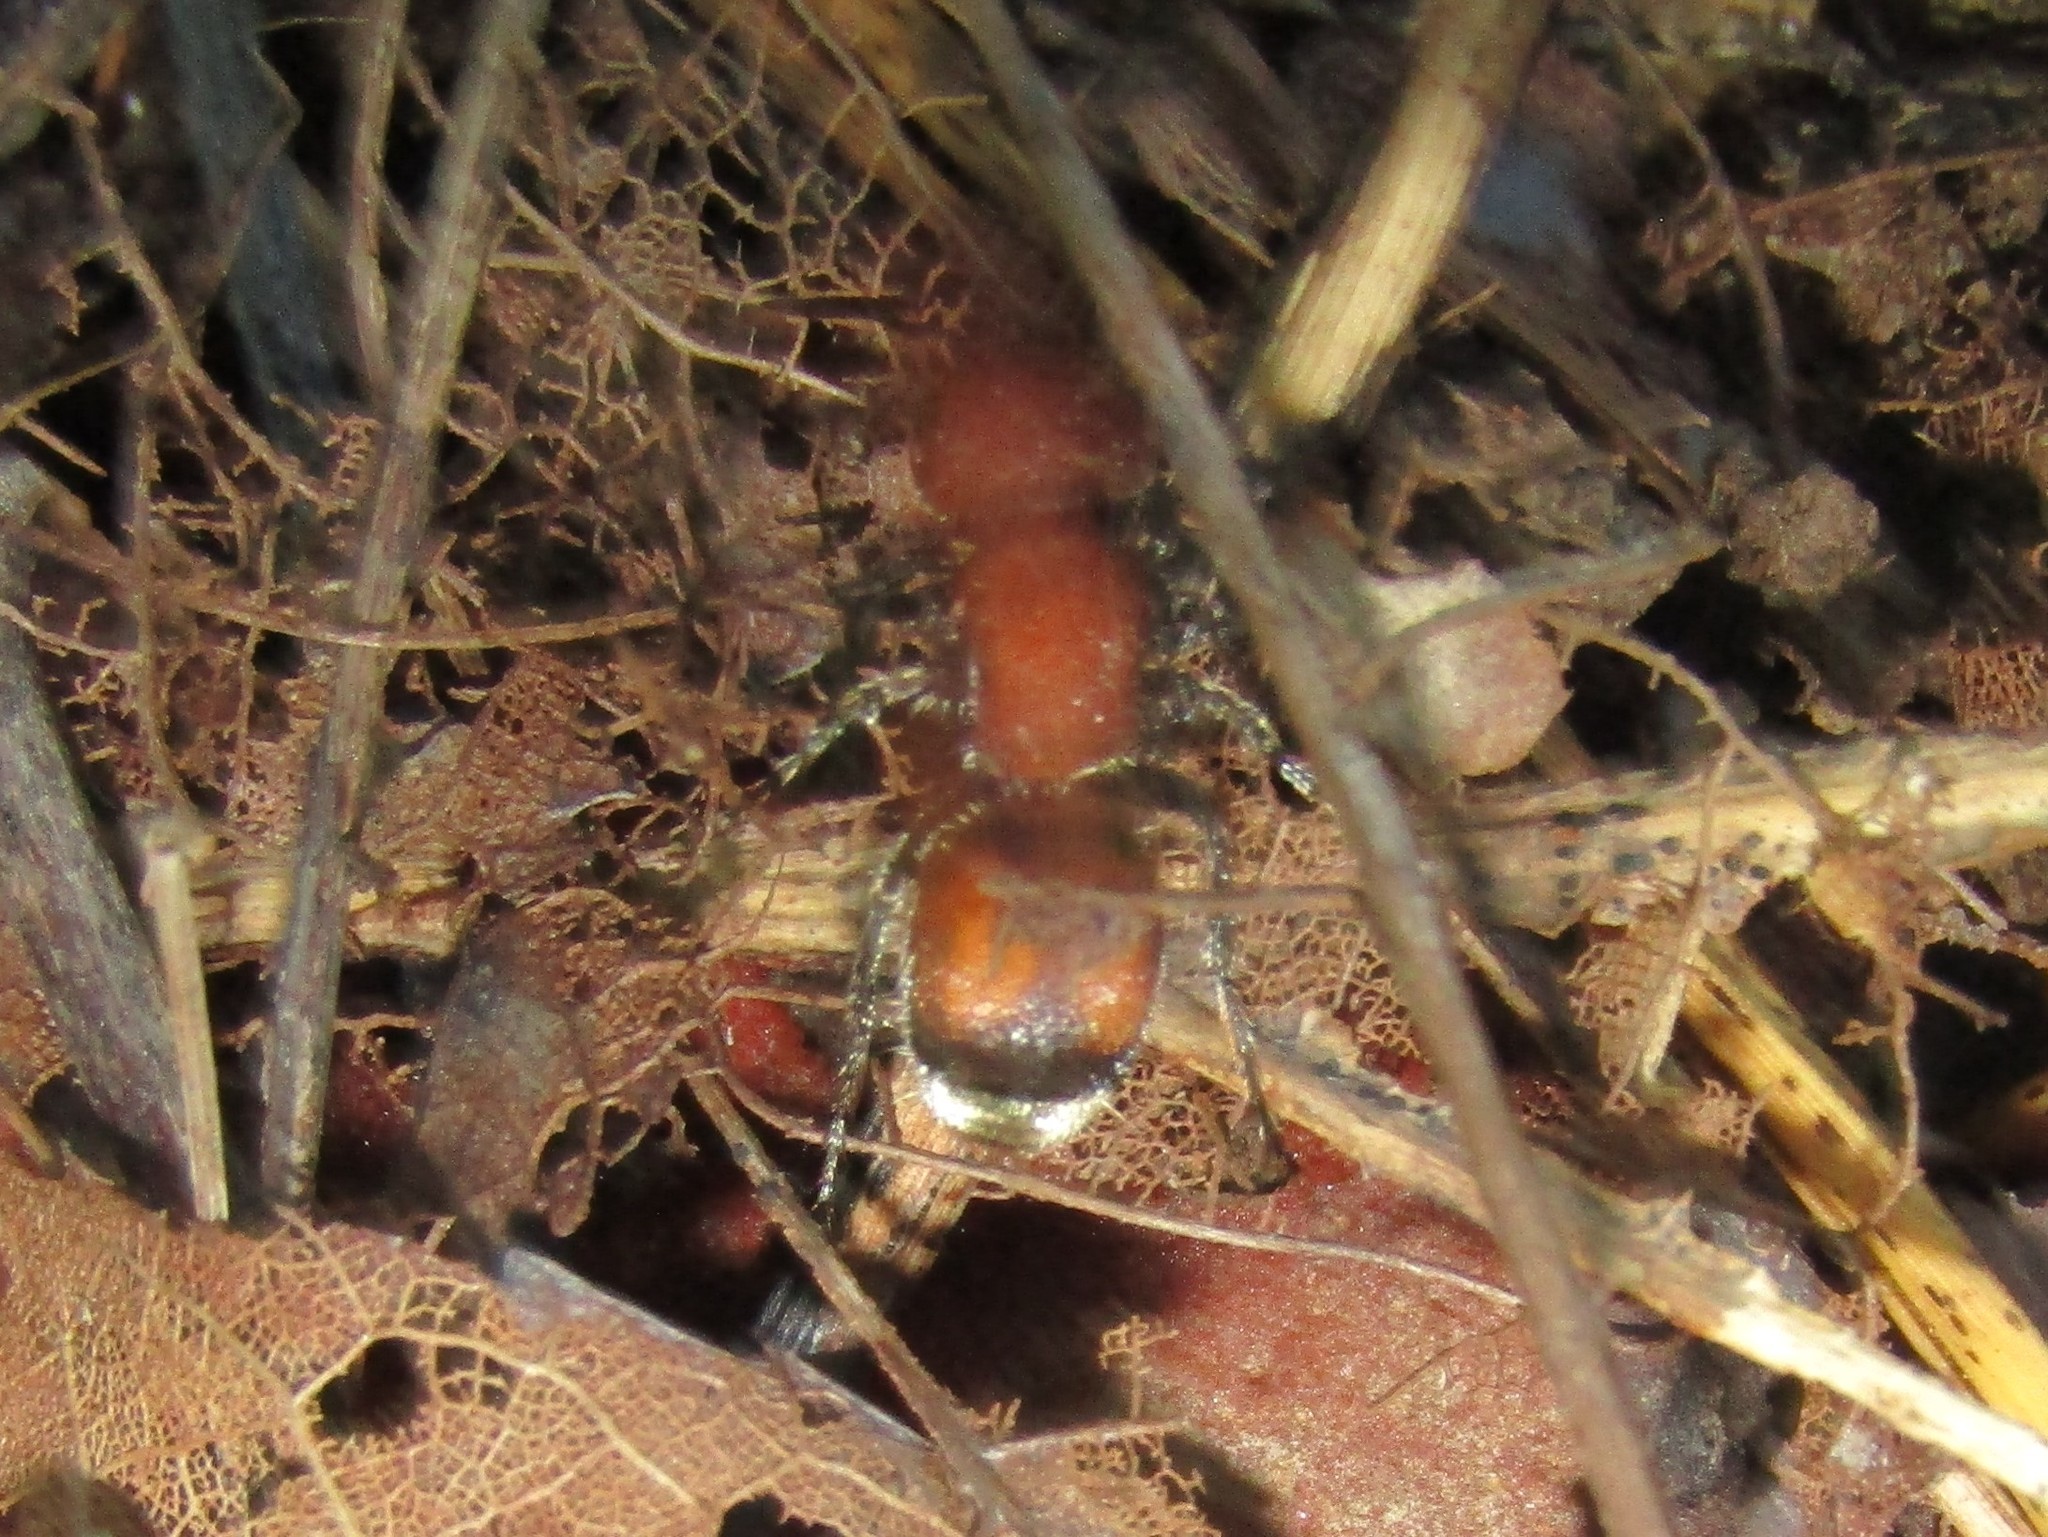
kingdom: Animalia
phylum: Arthropoda
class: Insecta
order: Hymenoptera
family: Mutillidae
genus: Pseudomethoca
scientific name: Pseudomethoca
